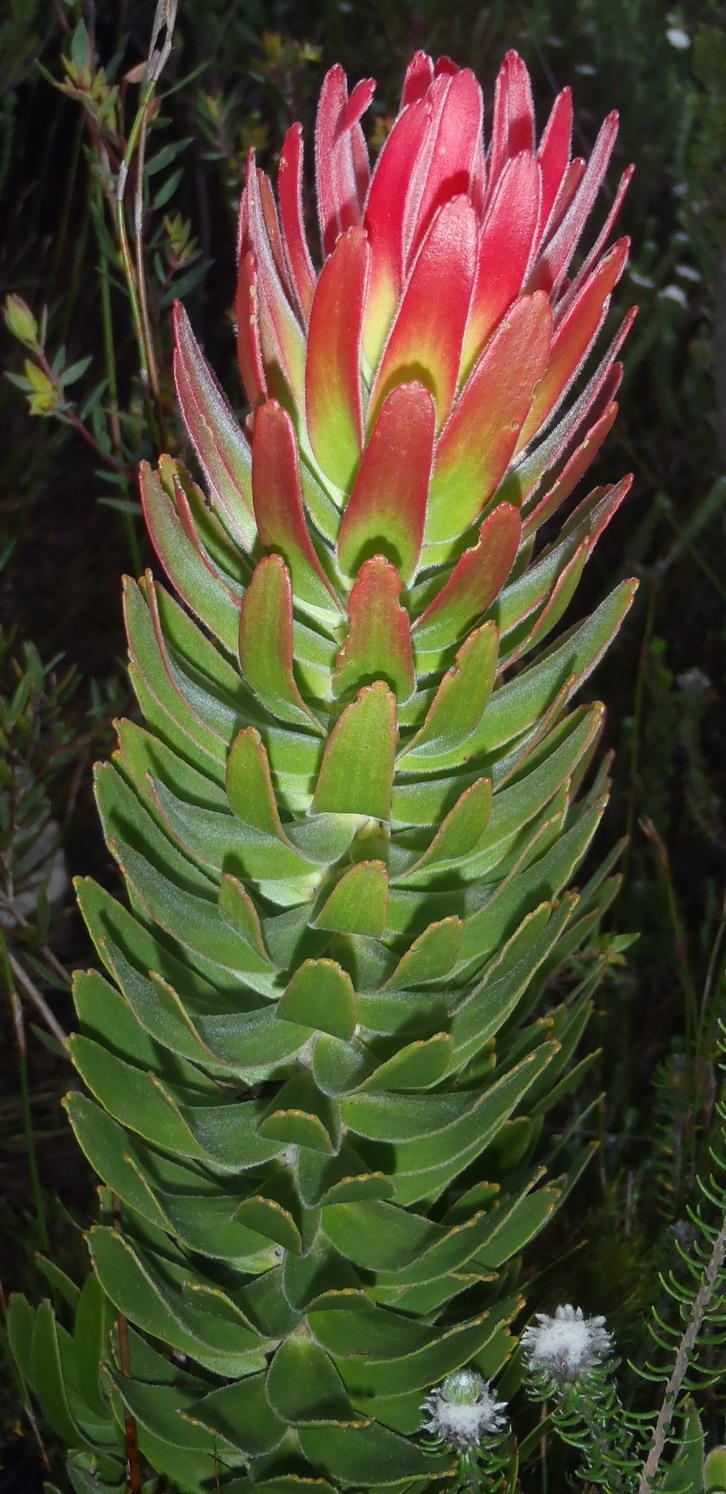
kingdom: Plantae
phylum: Tracheophyta
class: Magnoliopsida
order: Proteales
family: Proteaceae
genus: Mimetes
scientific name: Mimetes cucullatus
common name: Common pagoda
